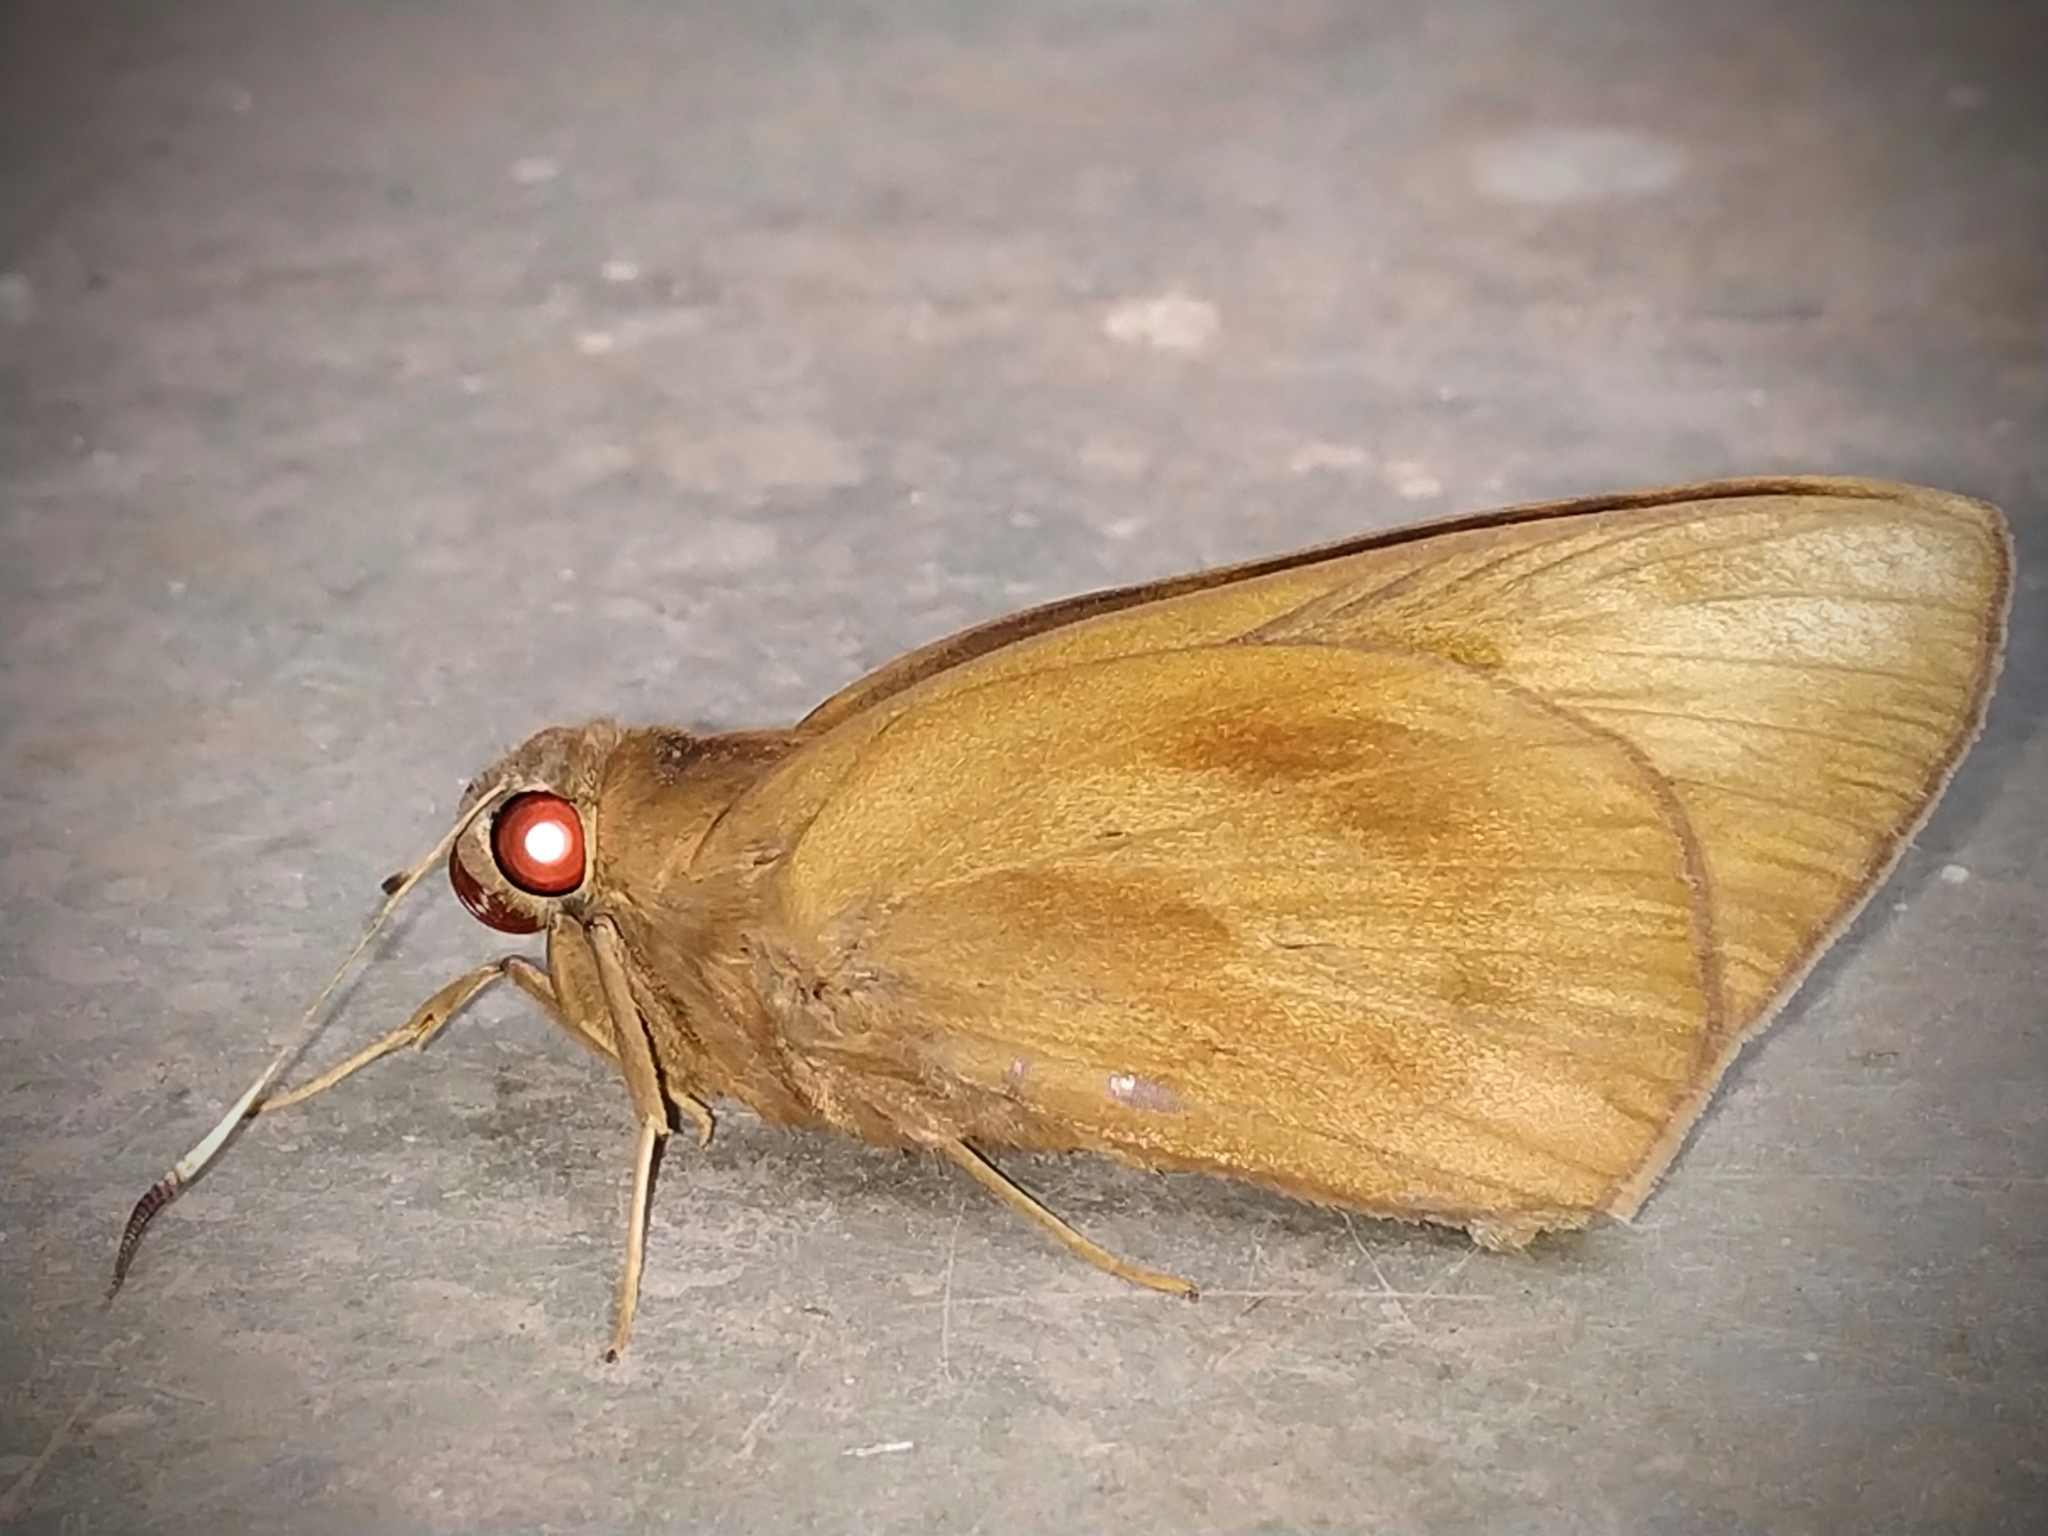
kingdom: Animalia
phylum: Arthropoda
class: Insecta
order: Lepidoptera
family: Hesperiidae
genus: Erionota
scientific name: Erionota torus
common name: Rounded palm-redeye
